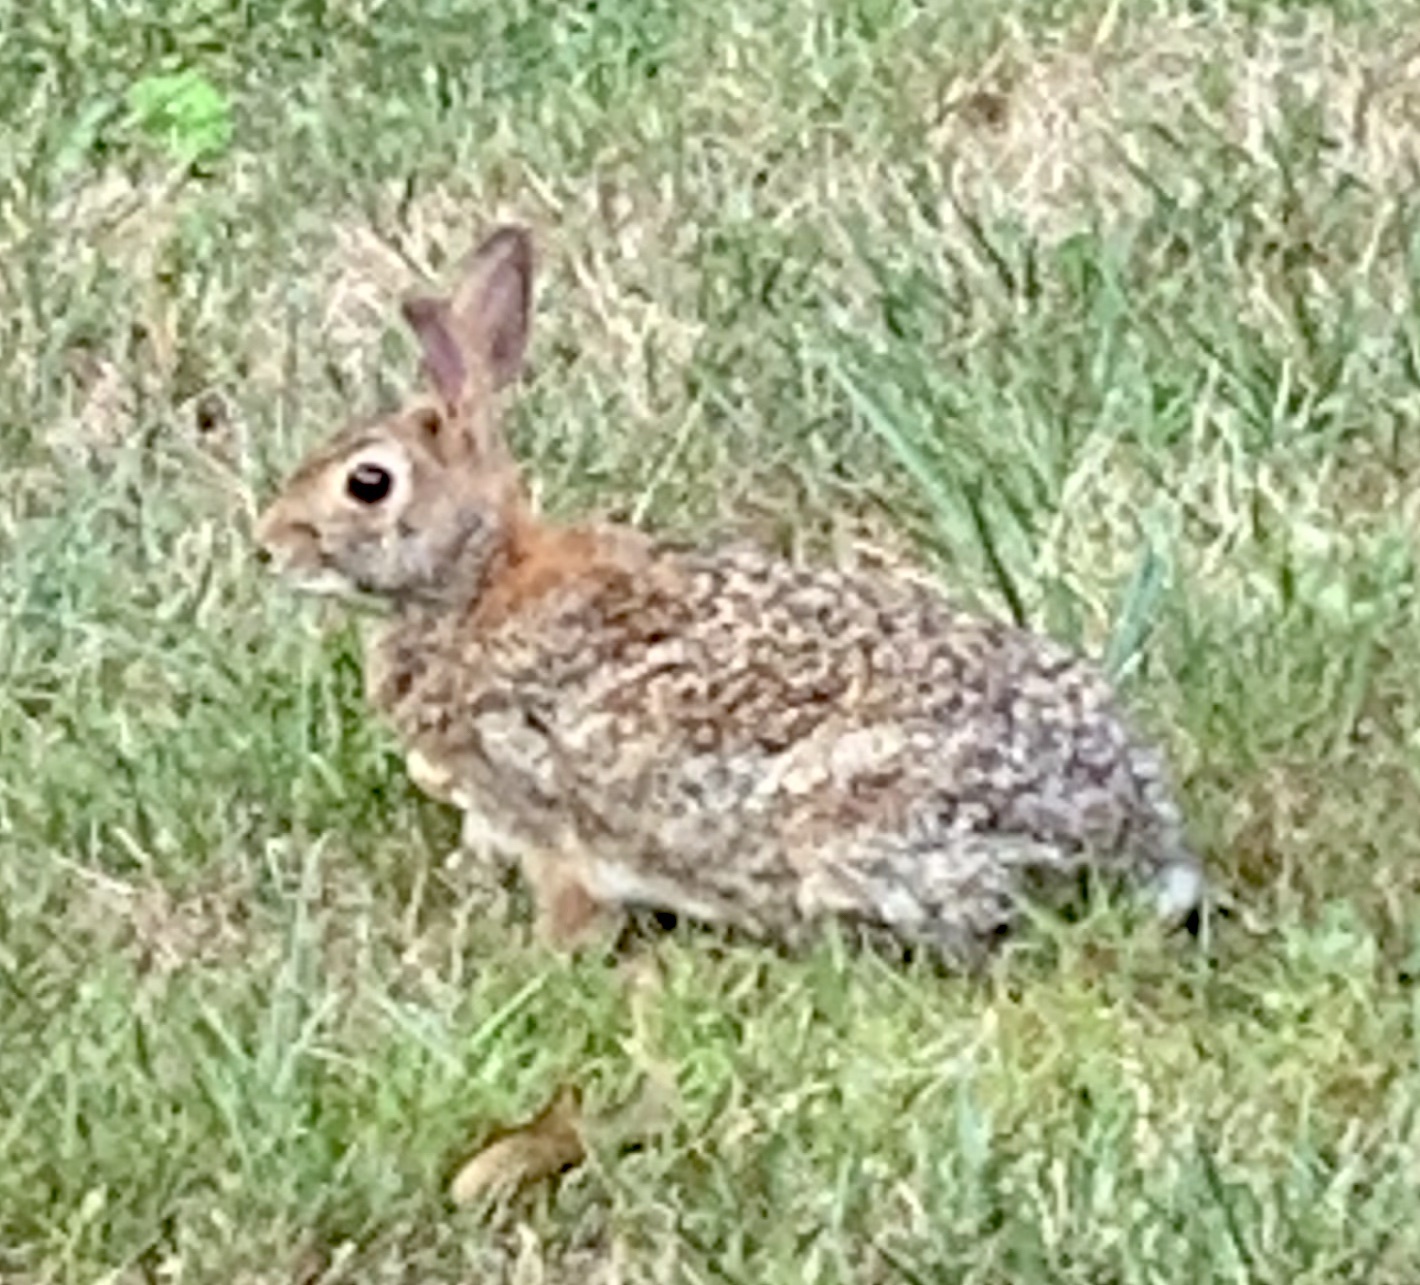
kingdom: Animalia
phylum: Chordata
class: Mammalia
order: Lagomorpha
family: Leporidae
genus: Sylvilagus
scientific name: Sylvilagus floridanus
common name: Eastern cottontail
